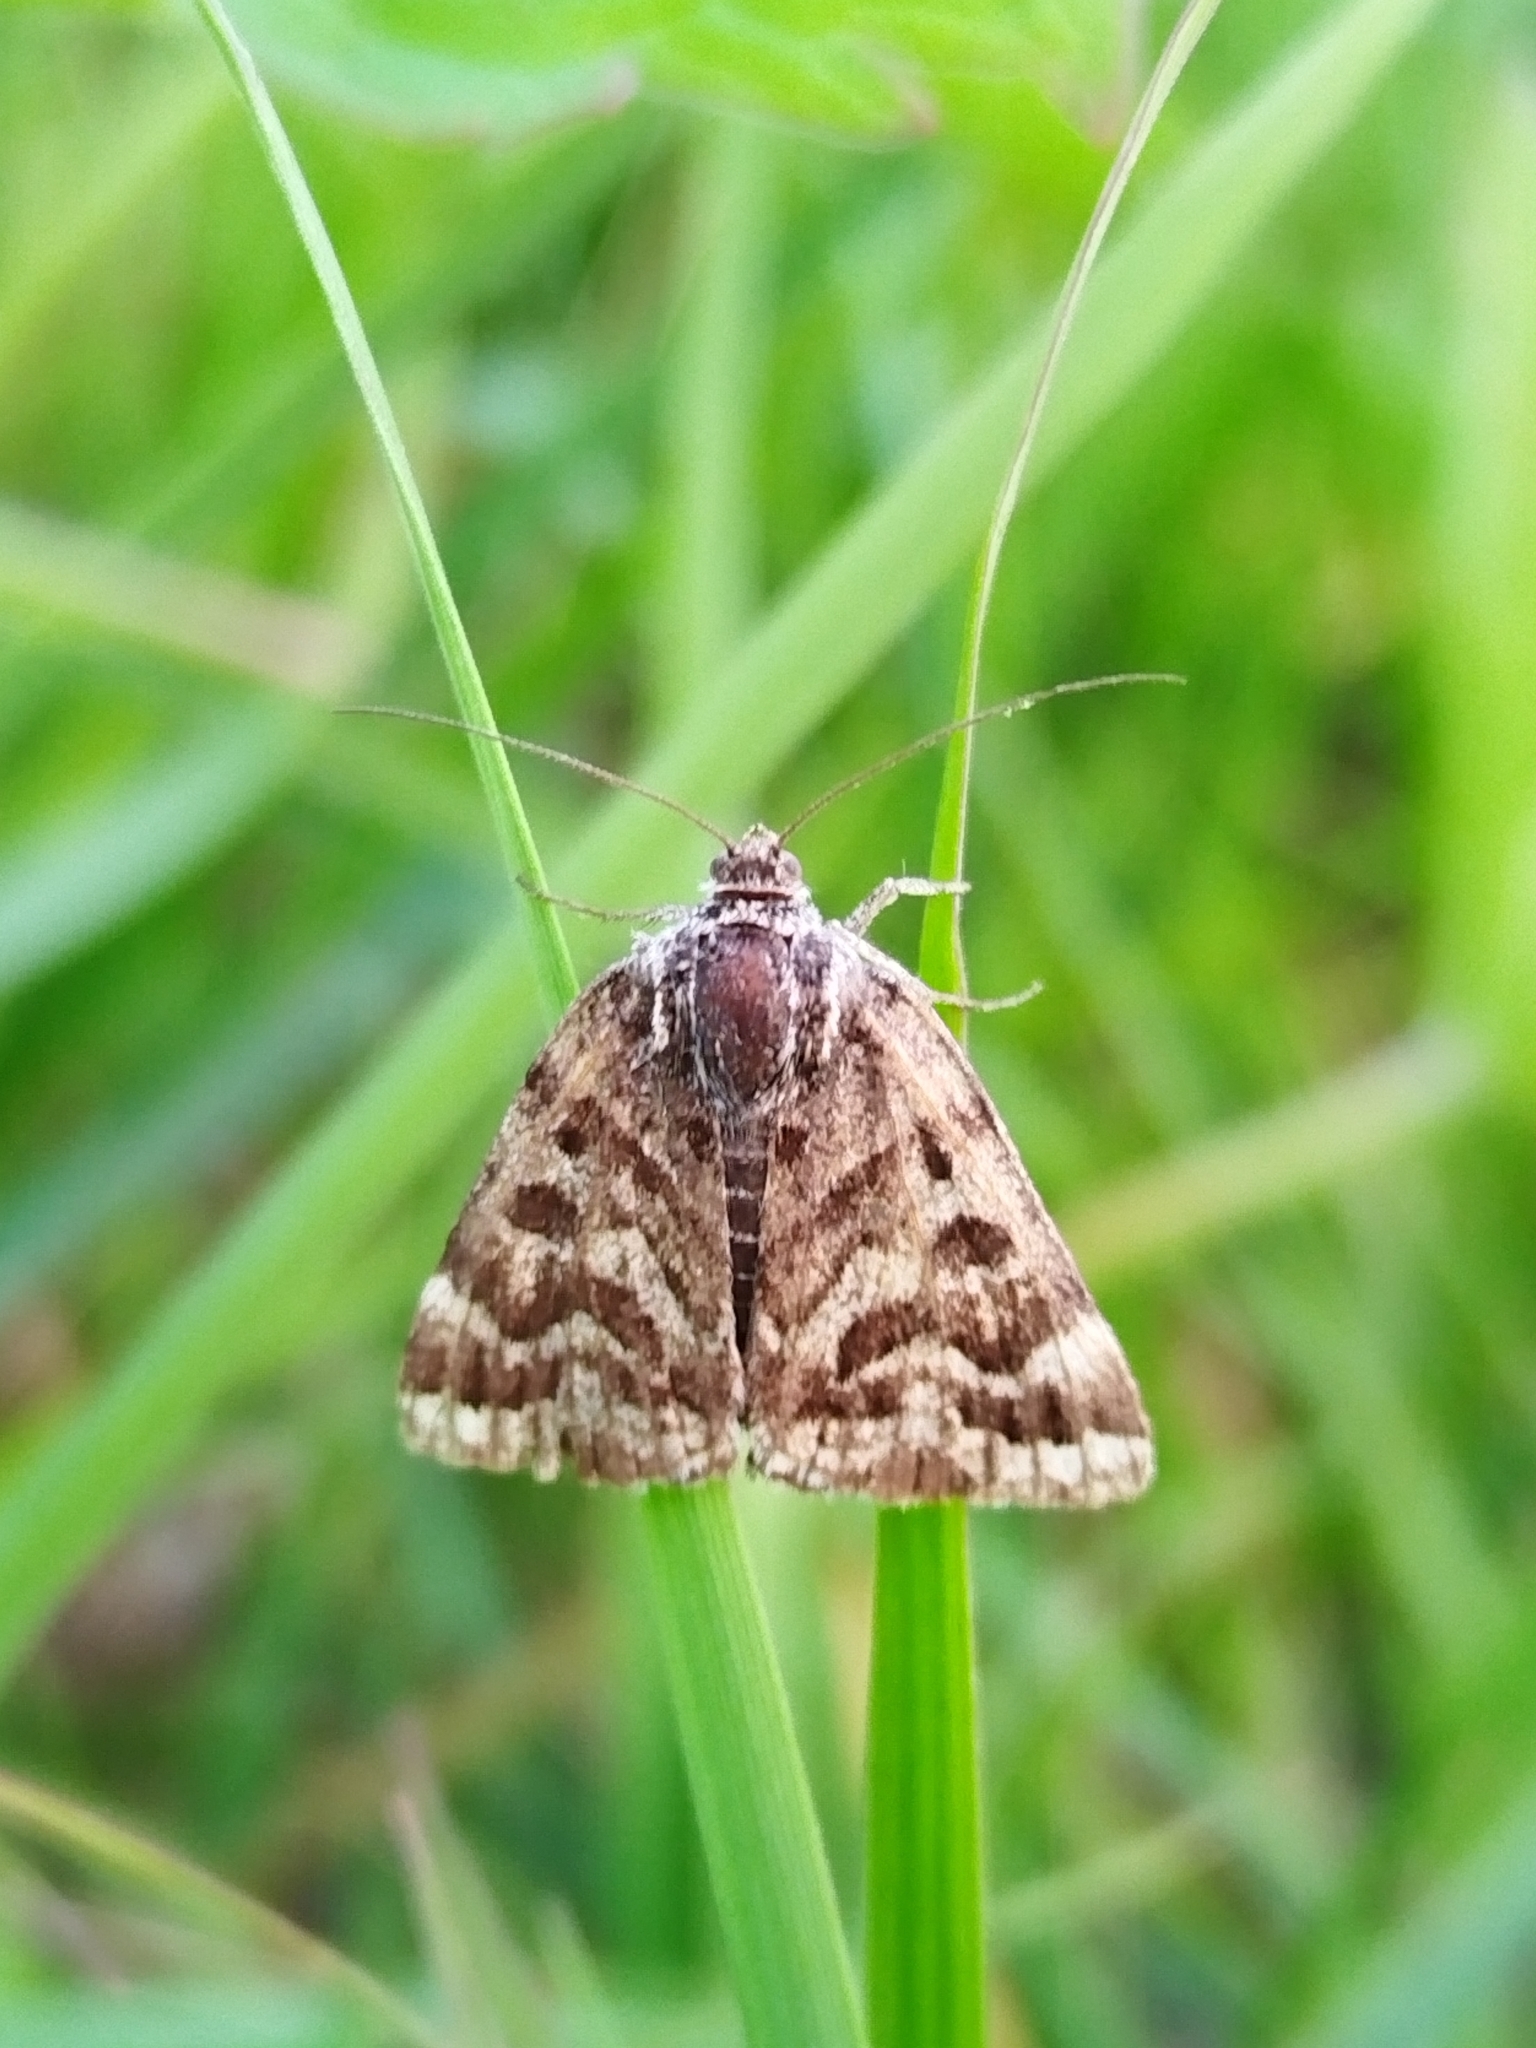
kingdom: Animalia
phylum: Arthropoda
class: Insecta
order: Lepidoptera
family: Erebidae
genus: Callistege
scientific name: Callistege mi
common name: Mother shipton
